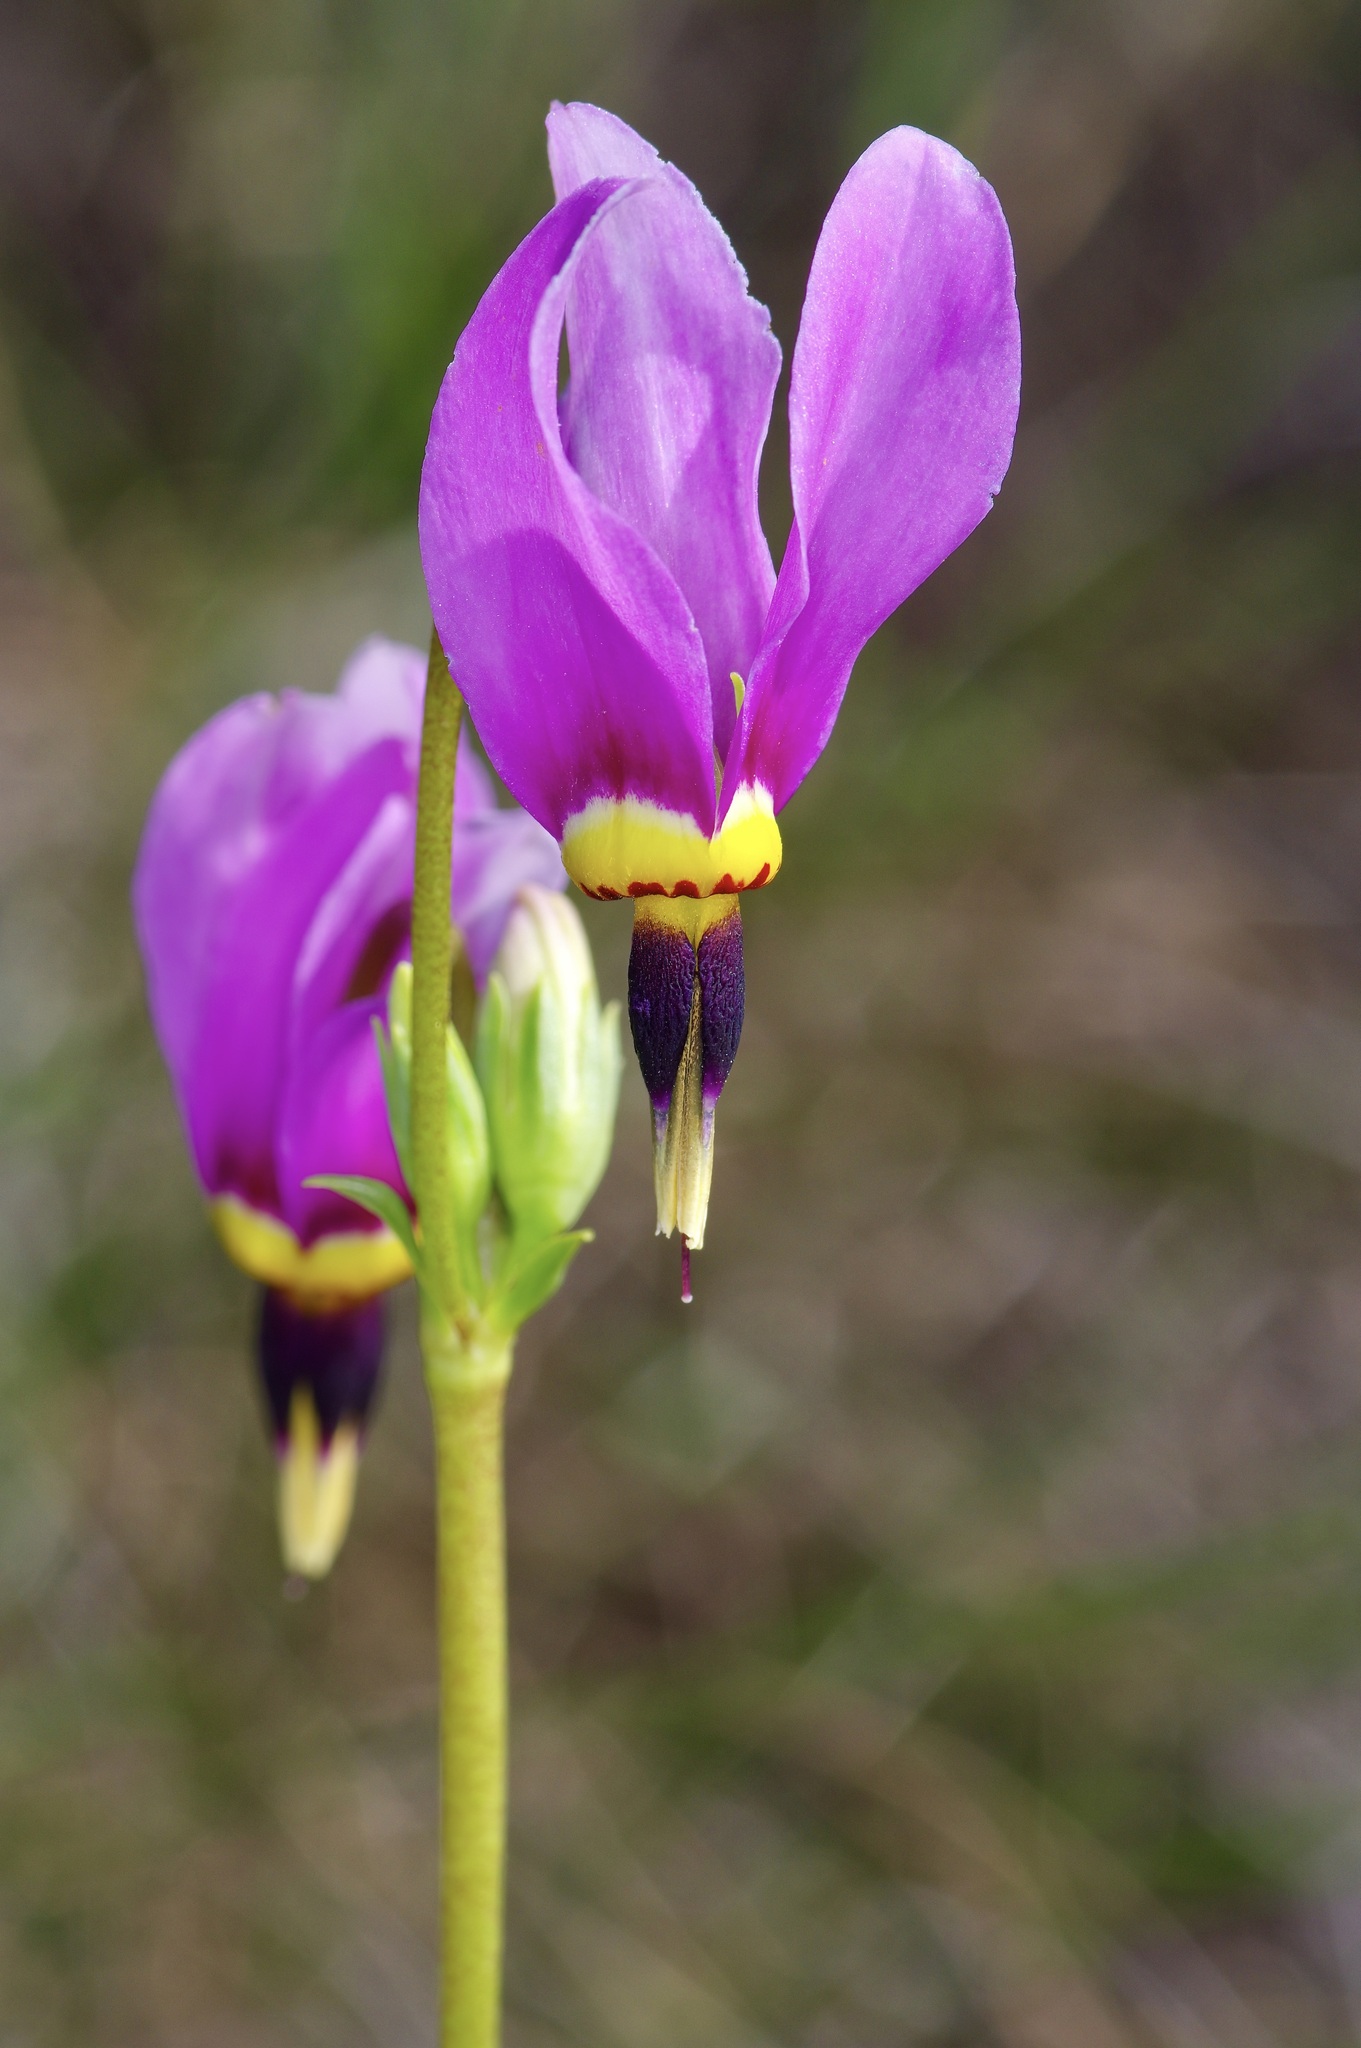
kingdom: Plantae
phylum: Tracheophyta
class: Magnoliopsida
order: Ericales
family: Primulaceae
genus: Dodecatheon
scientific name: Dodecatheon meadia
